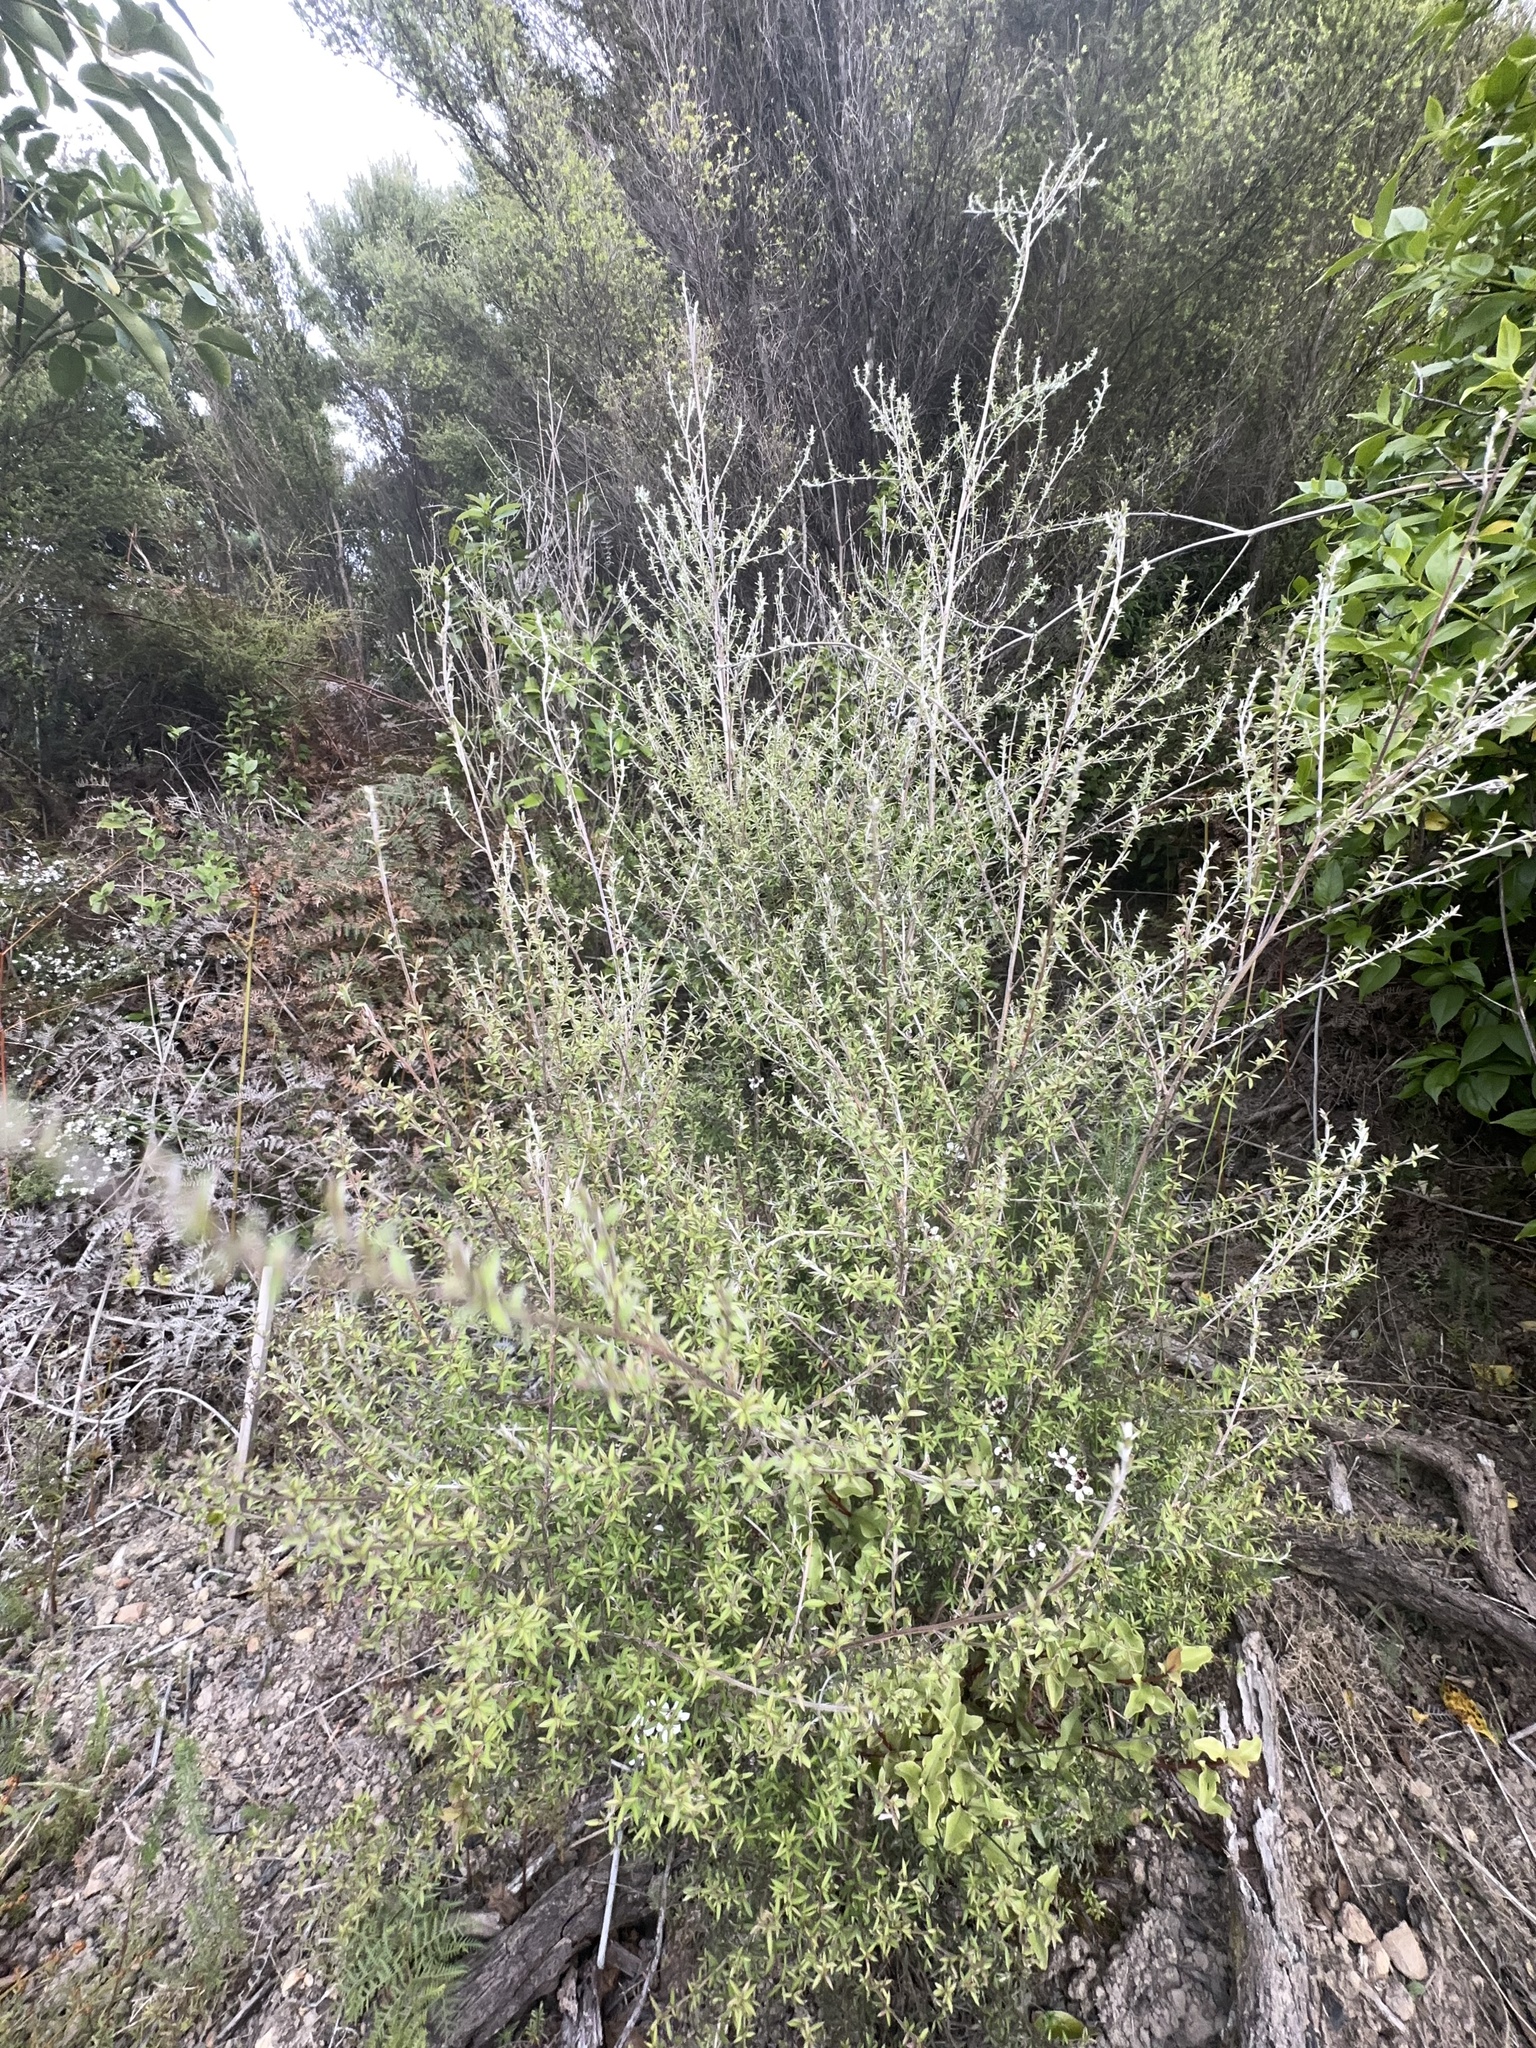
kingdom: Plantae
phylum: Tracheophyta
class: Magnoliopsida
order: Myrtales
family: Myrtaceae
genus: Leptospermum
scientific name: Leptospermum scoparium
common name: Broom tea-tree
